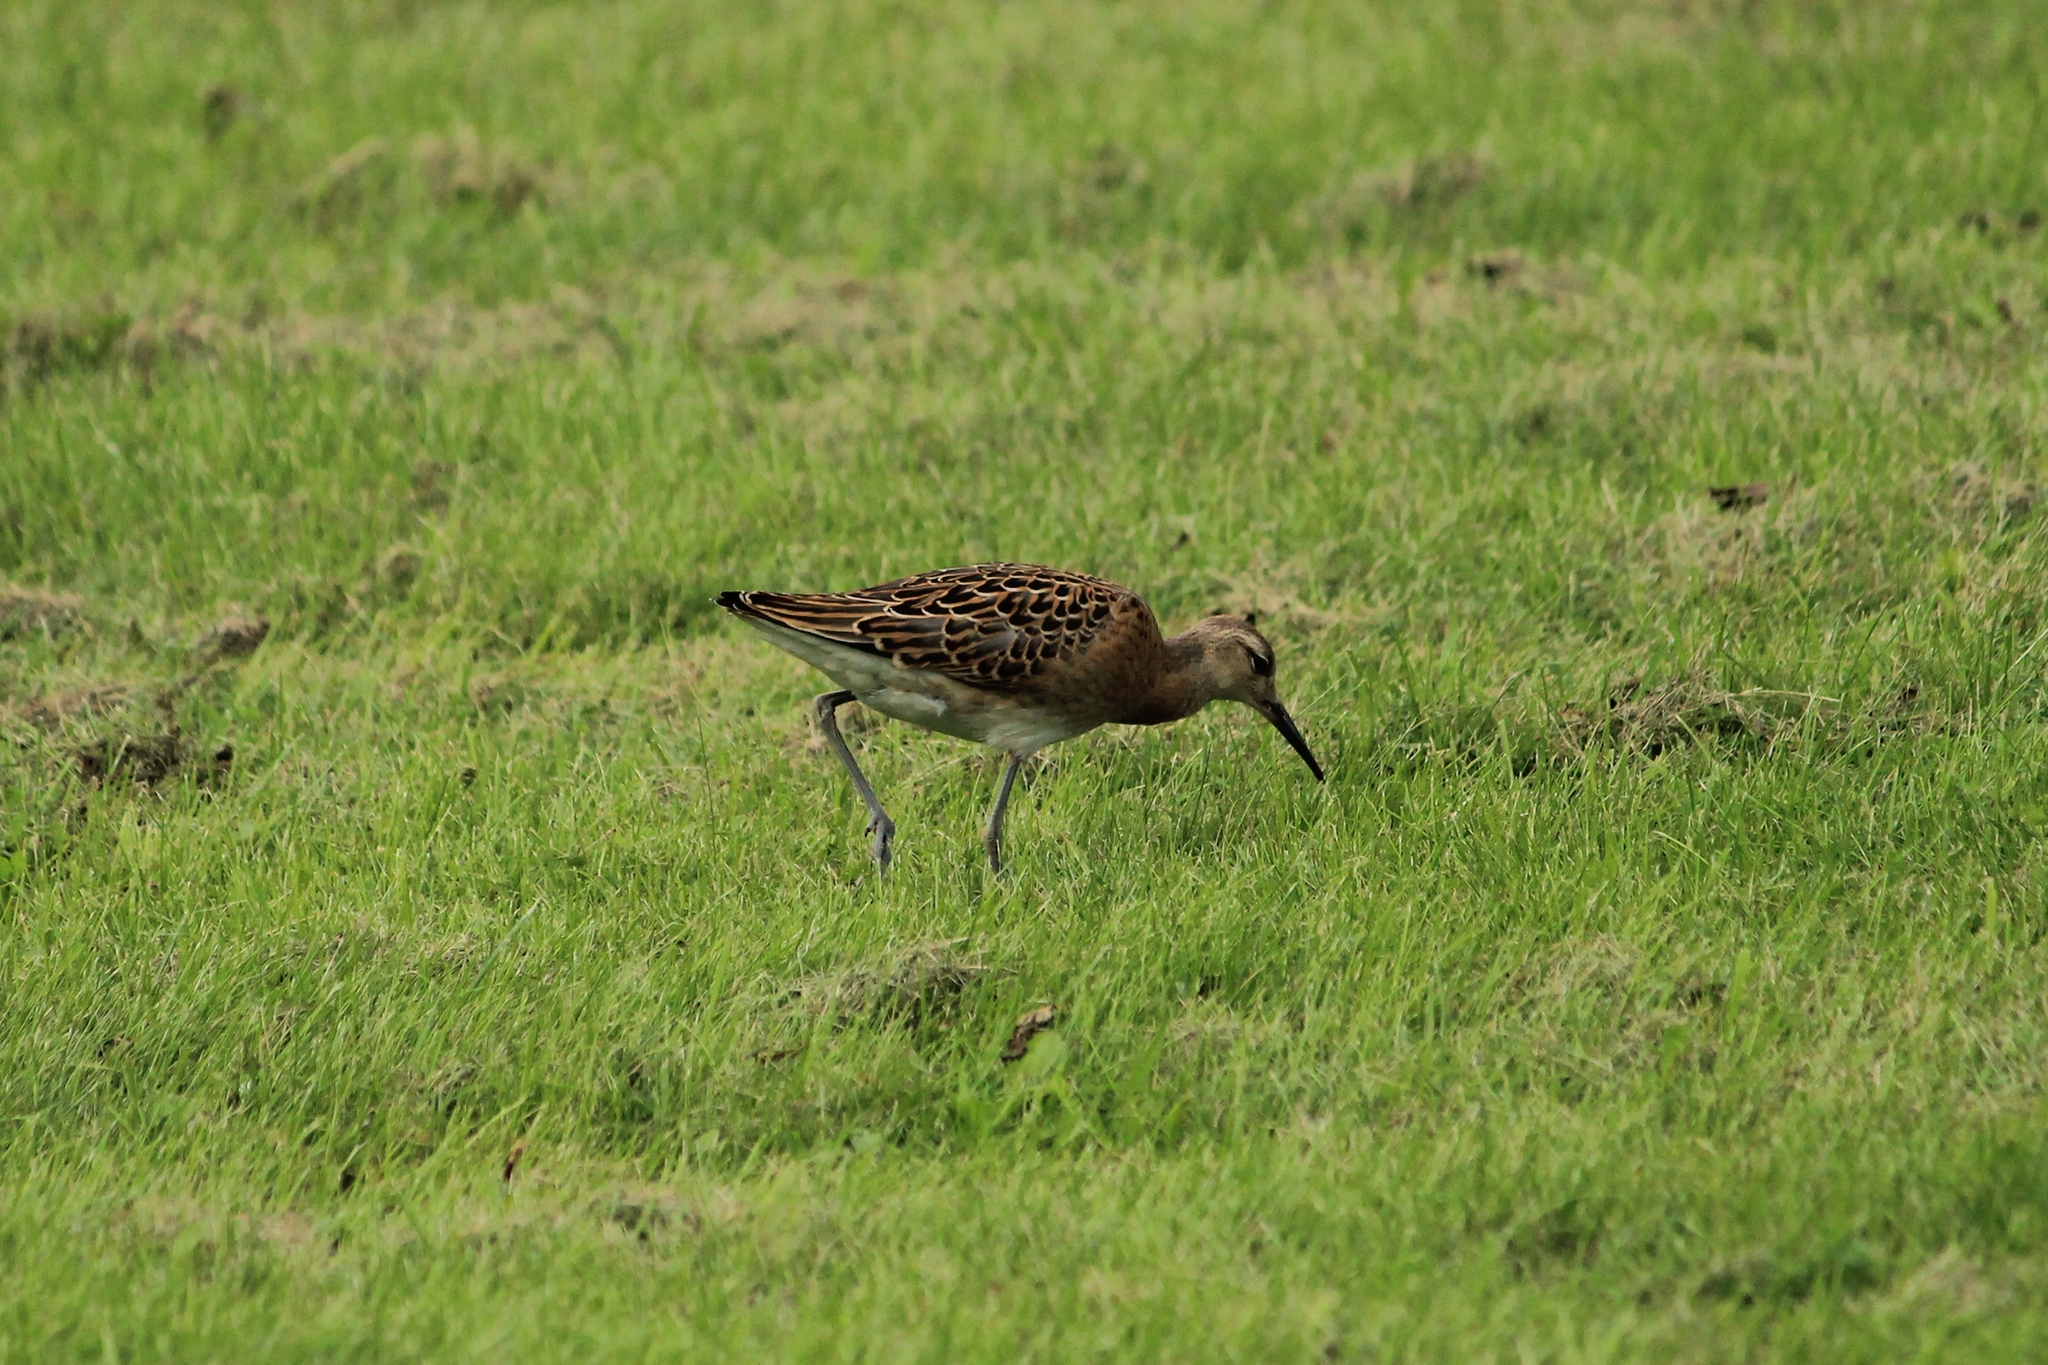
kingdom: Animalia
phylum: Chordata
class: Aves
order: Charadriiformes
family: Scolopacidae
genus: Calidris
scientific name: Calidris pugnax
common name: Ruff
